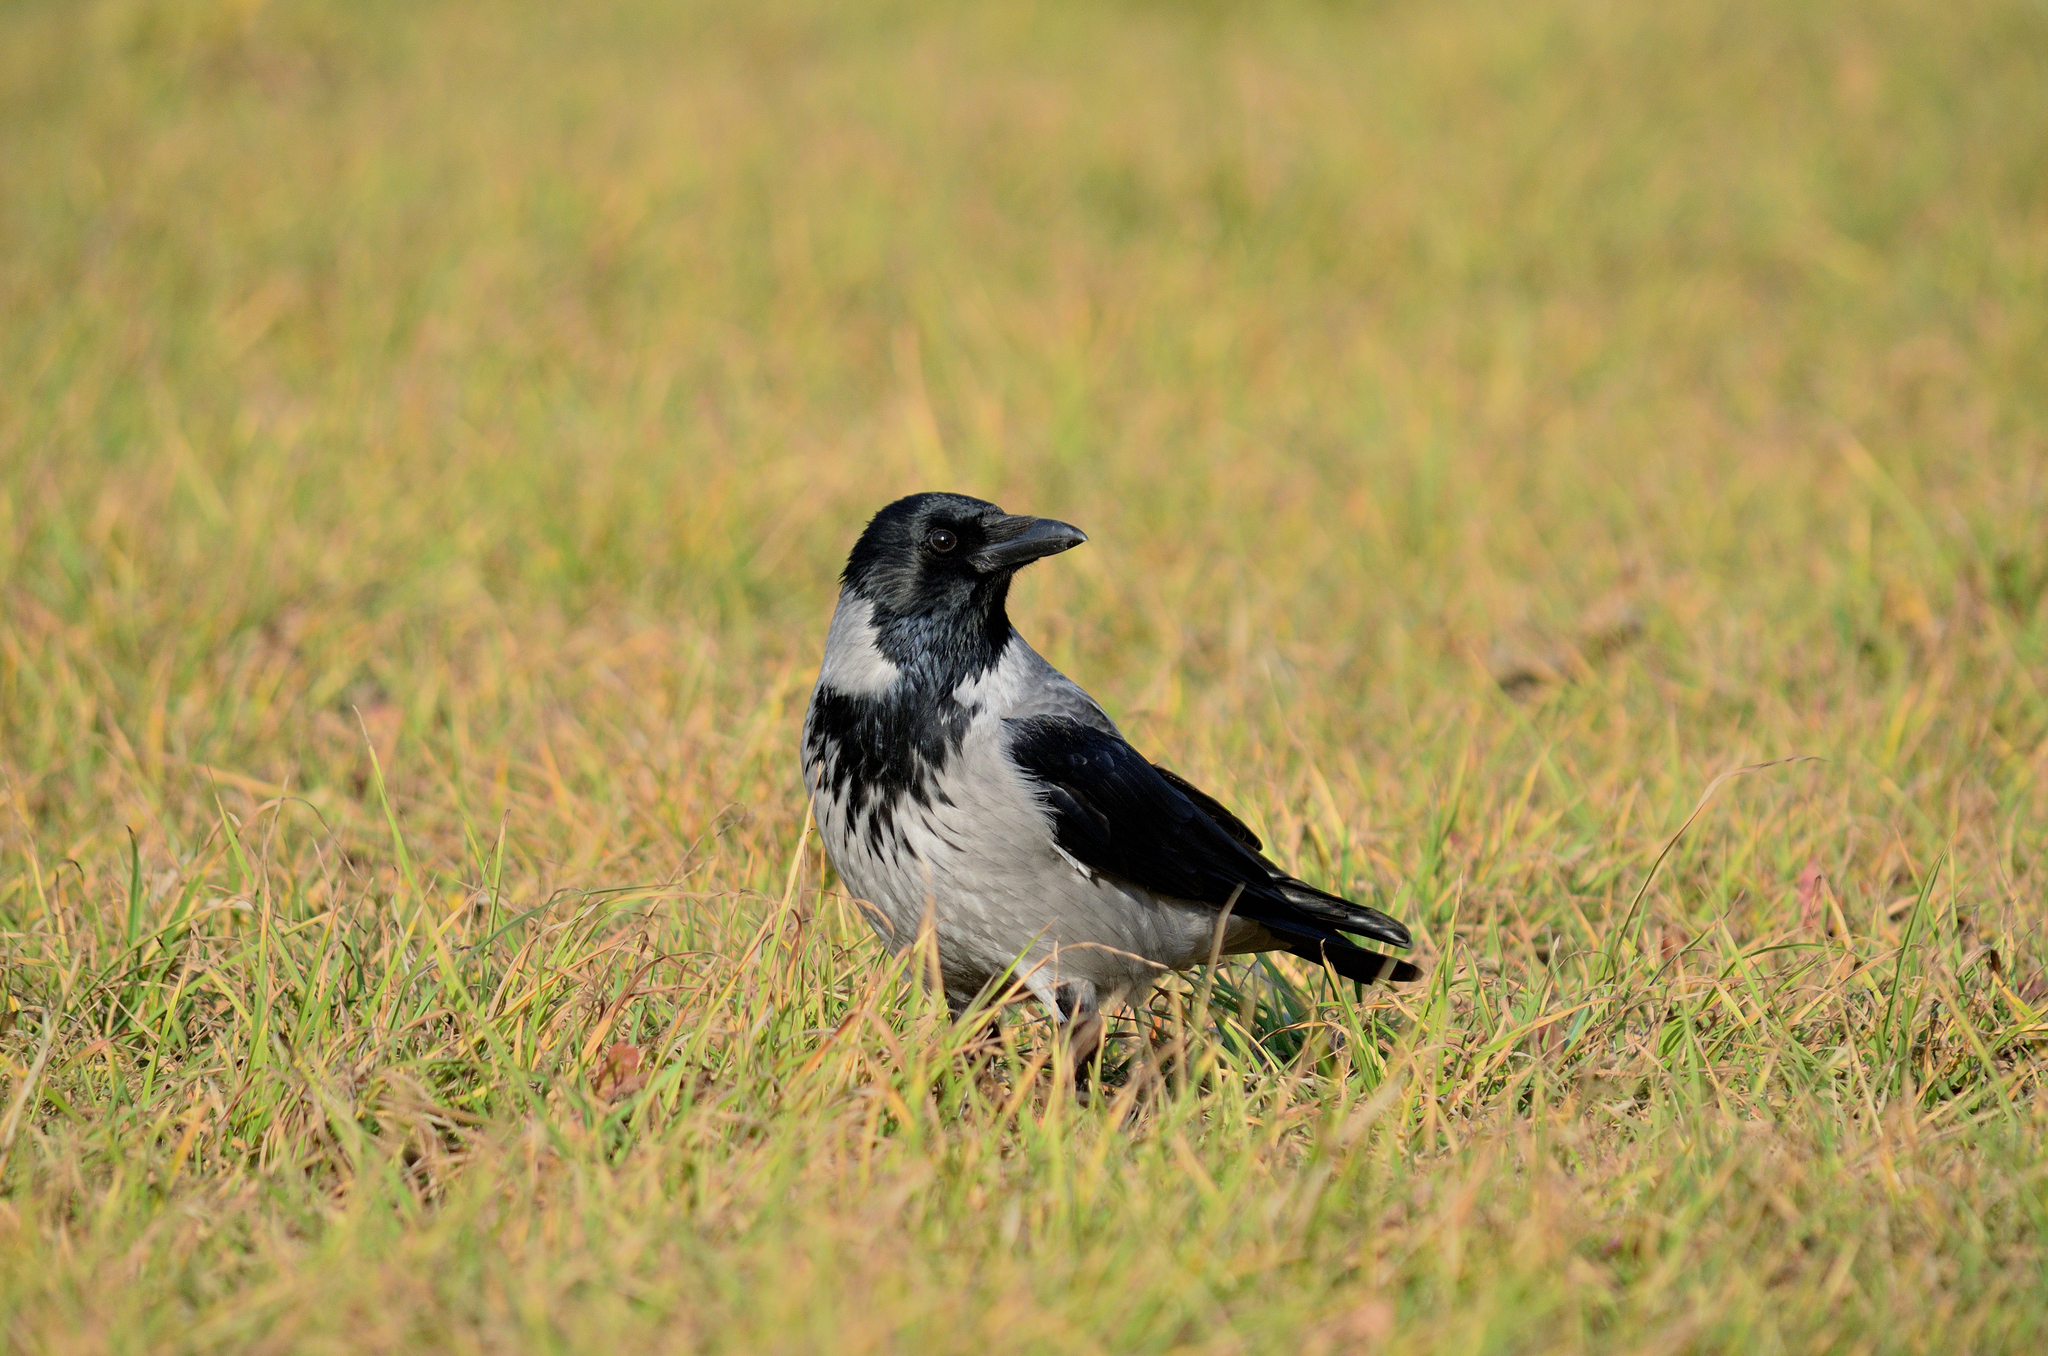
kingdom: Animalia
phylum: Chordata
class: Aves
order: Passeriformes
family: Corvidae
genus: Corvus
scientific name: Corvus cornix
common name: Hooded crow
